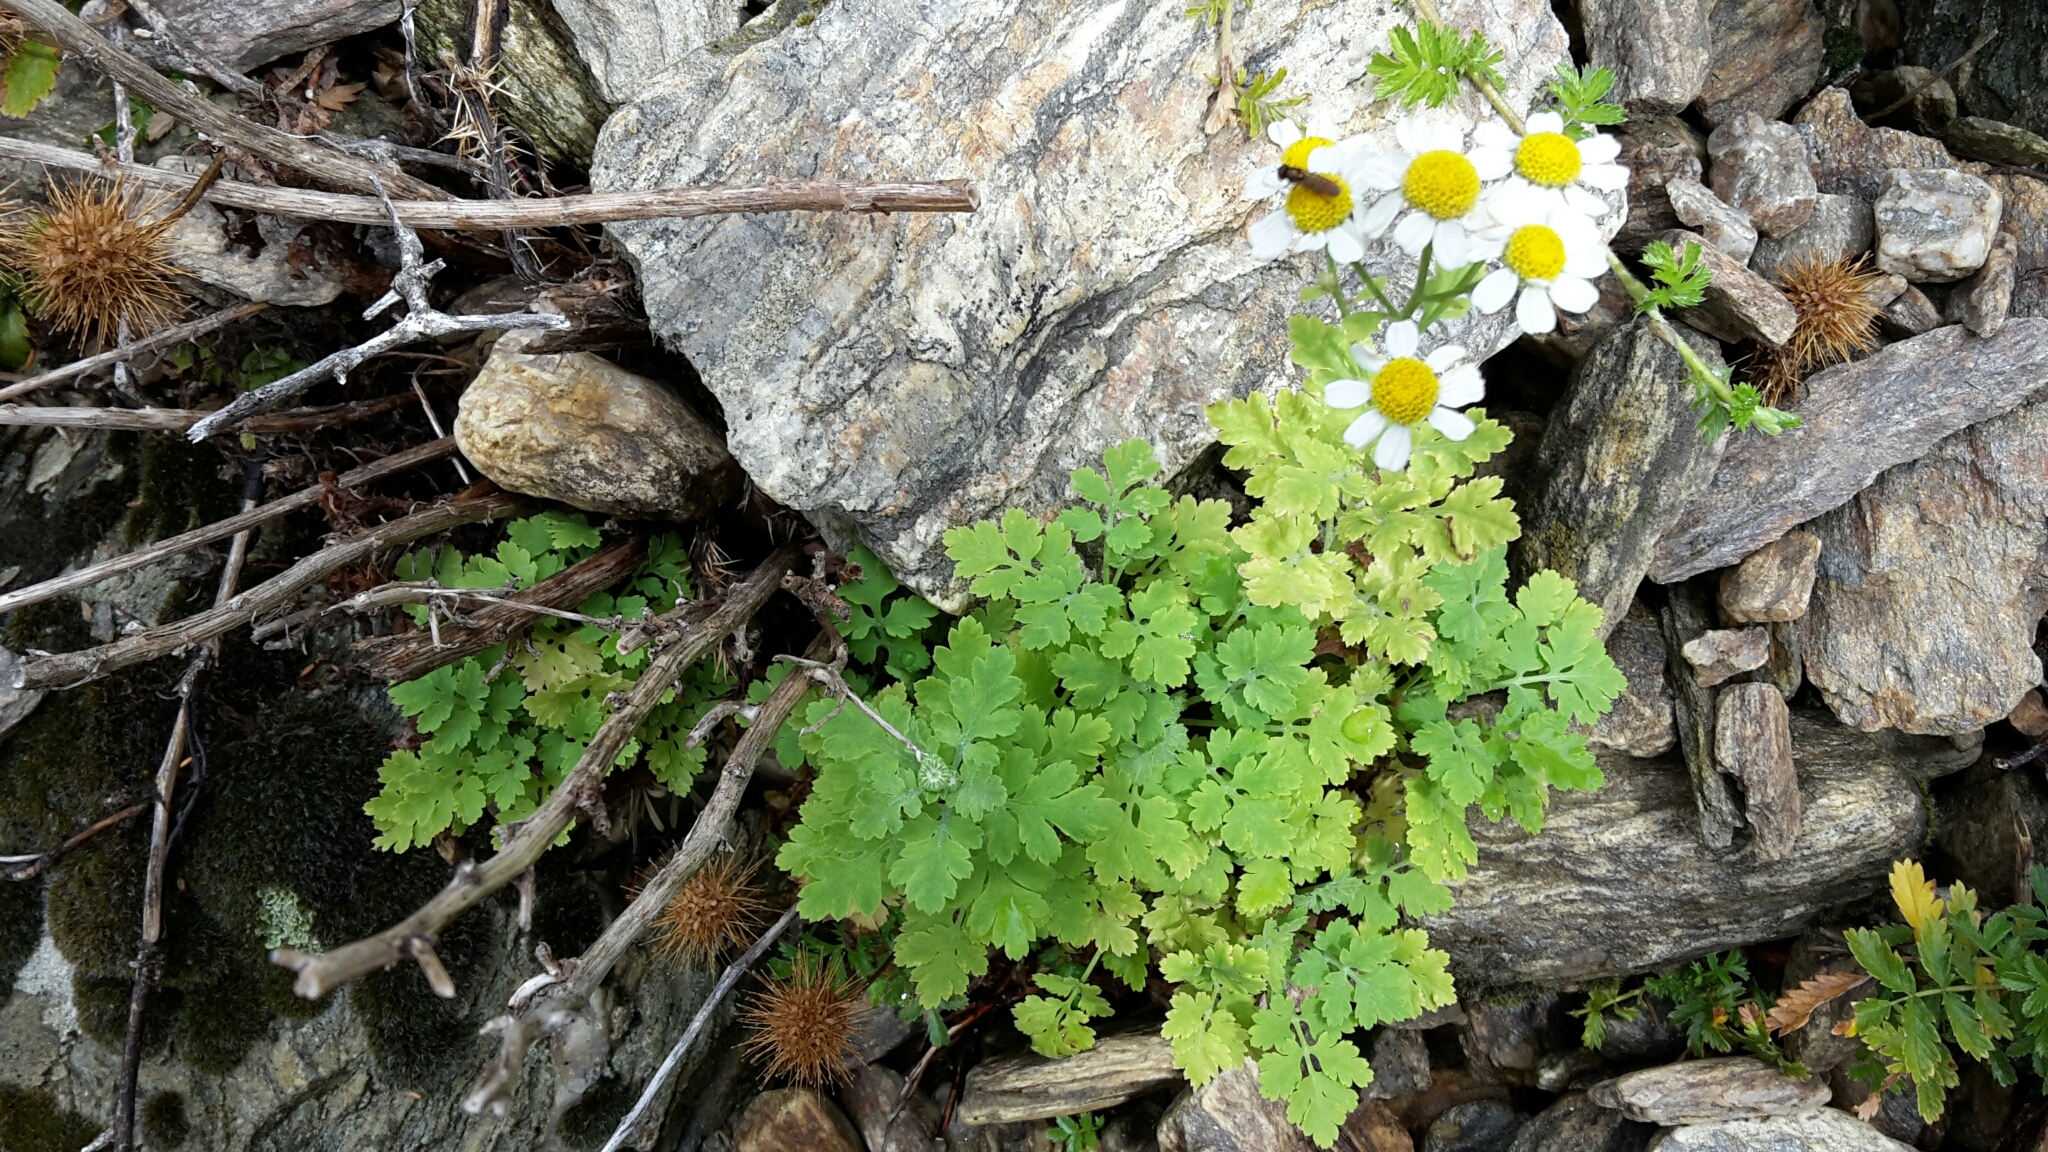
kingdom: Plantae
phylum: Tracheophyta
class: Magnoliopsida
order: Asterales
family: Asteraceae
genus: Tanacetum
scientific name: Tanacetum parthenium
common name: Feverfew
